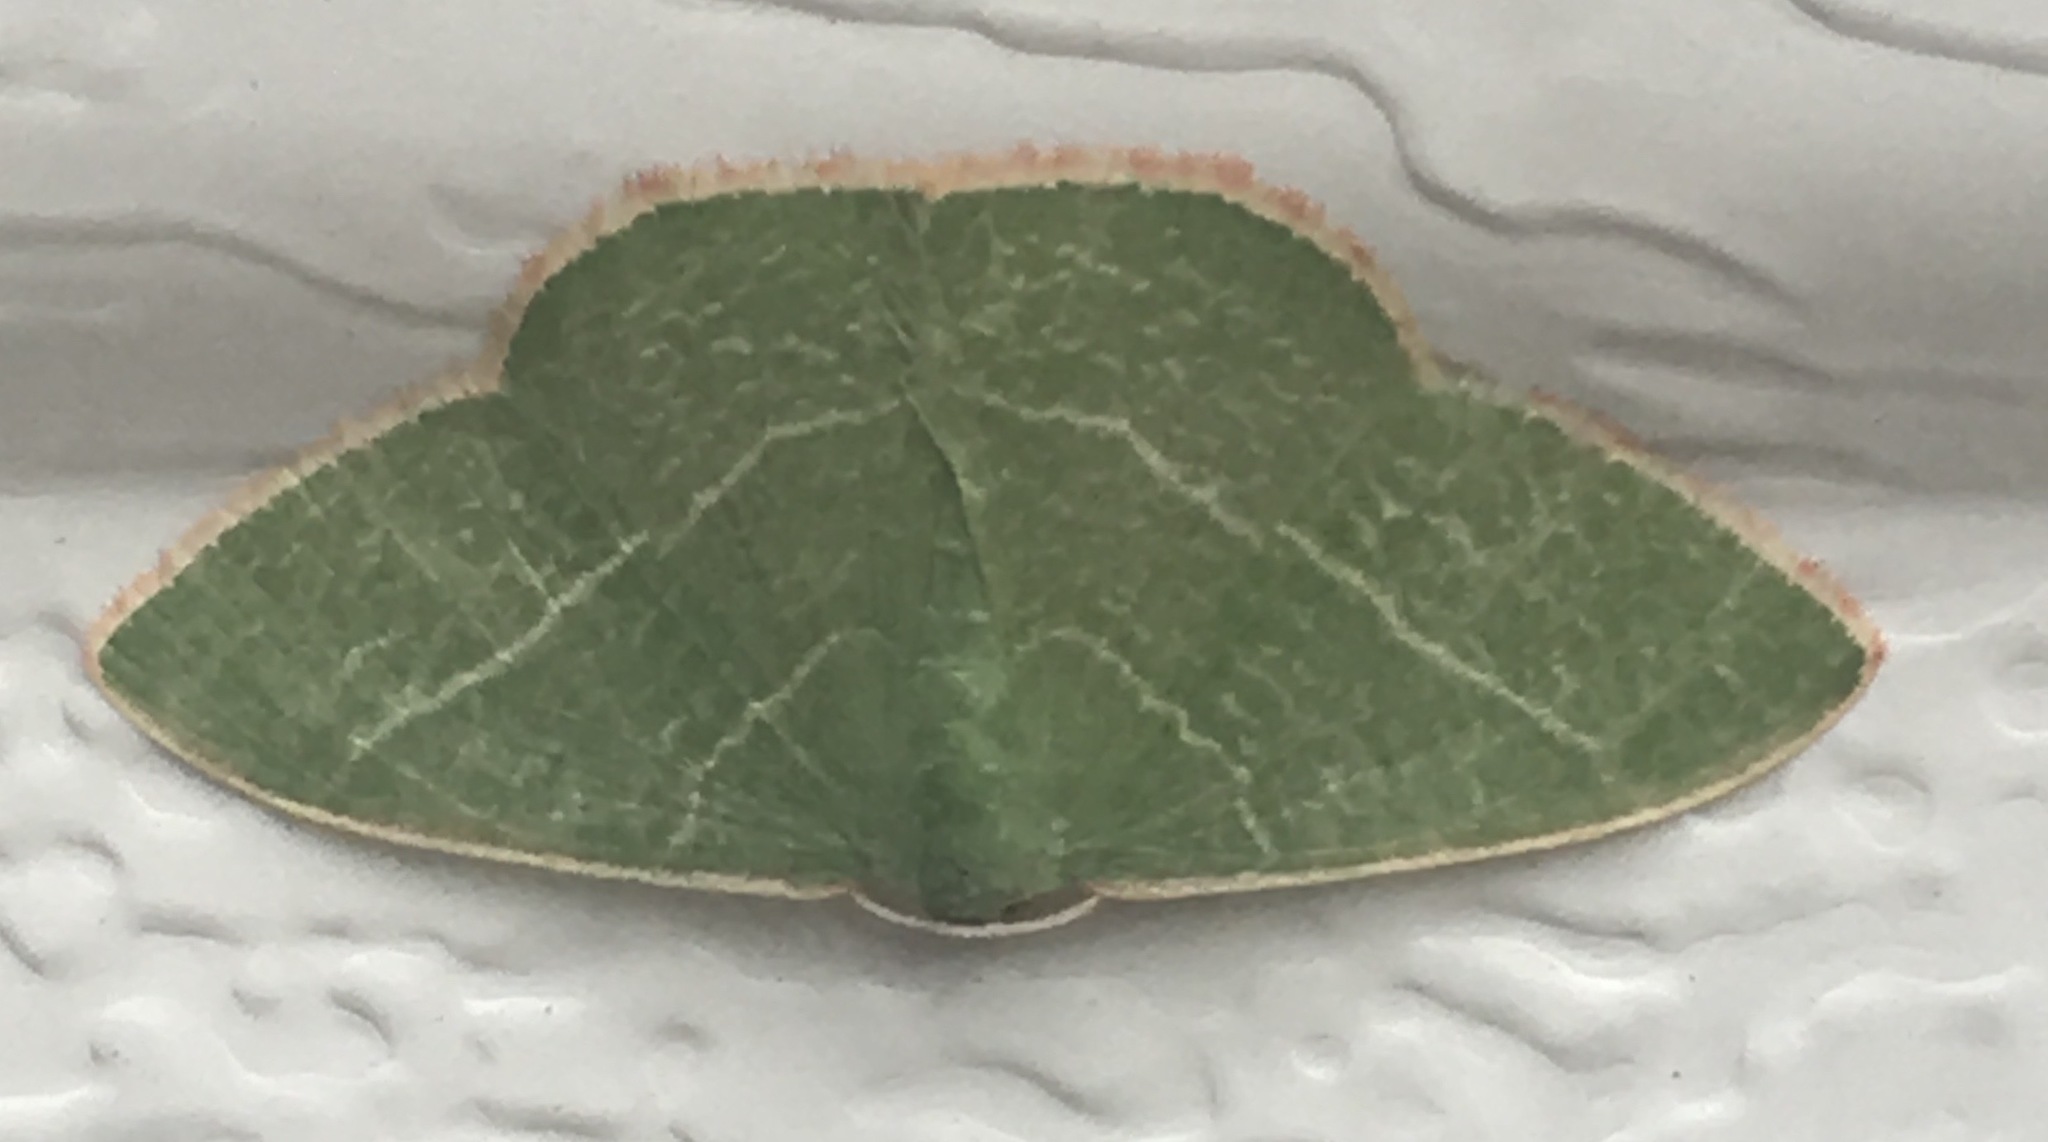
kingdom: Animalia
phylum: Arthropoda
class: Insecta
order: Lepidoptera
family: Geometridae
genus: Nemoria
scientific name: Nemoria leptalea
